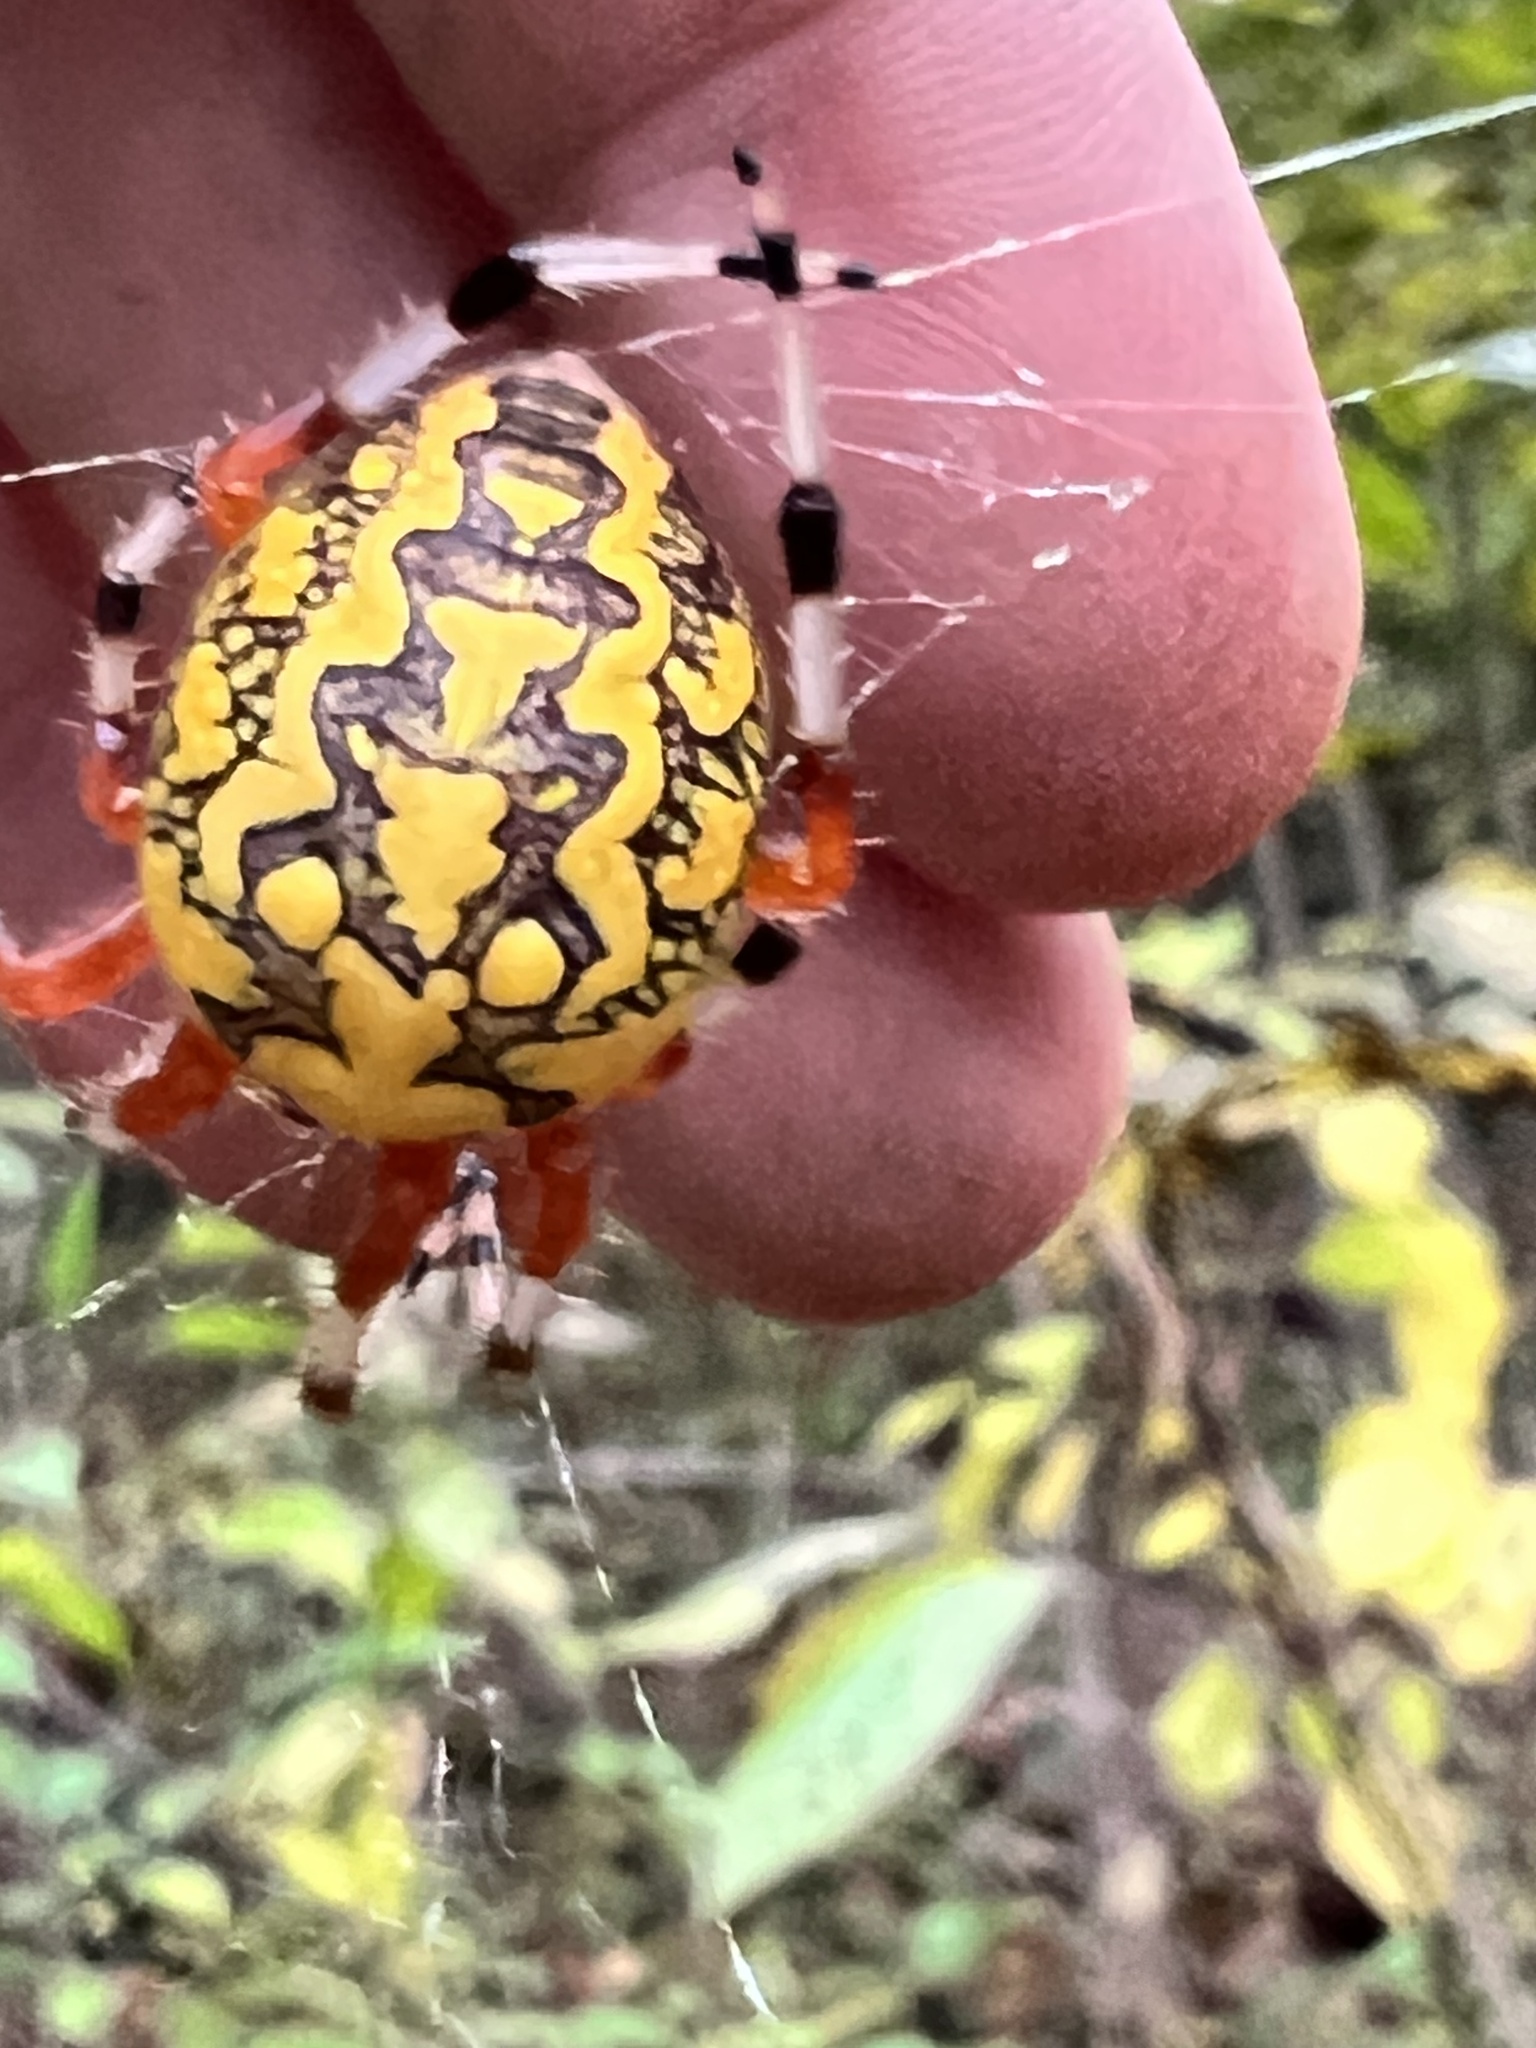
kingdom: Animalia
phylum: Arthropoda
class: Arachnida
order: Araneae
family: Araneidae
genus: Araneus
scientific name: Araneus marmoreus
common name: Marbled orbweaver
